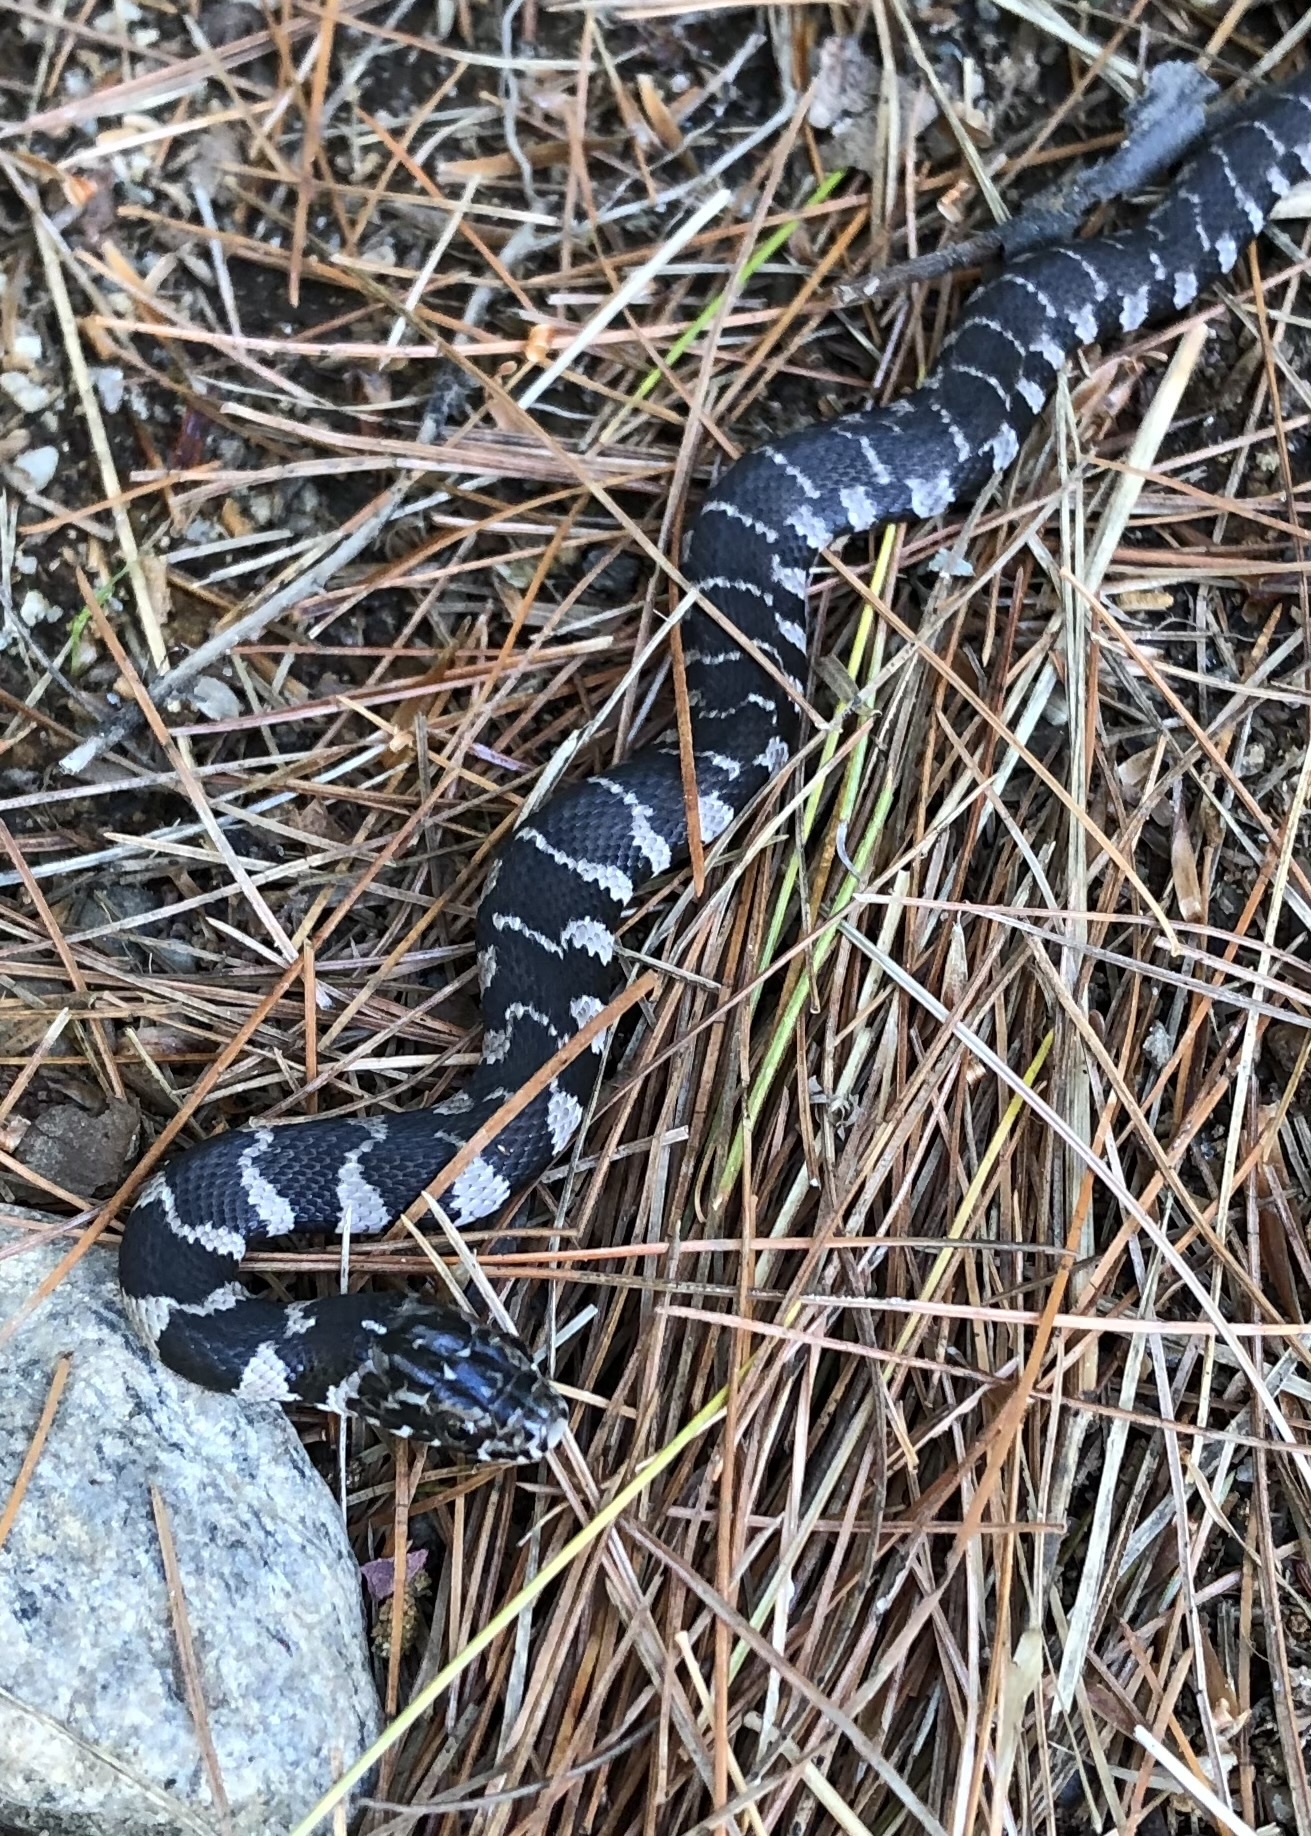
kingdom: Animalia
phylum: Chordata
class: Squamata
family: Colubridae
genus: Nerodia
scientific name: Nerodia sipedon
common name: Northern water snake
